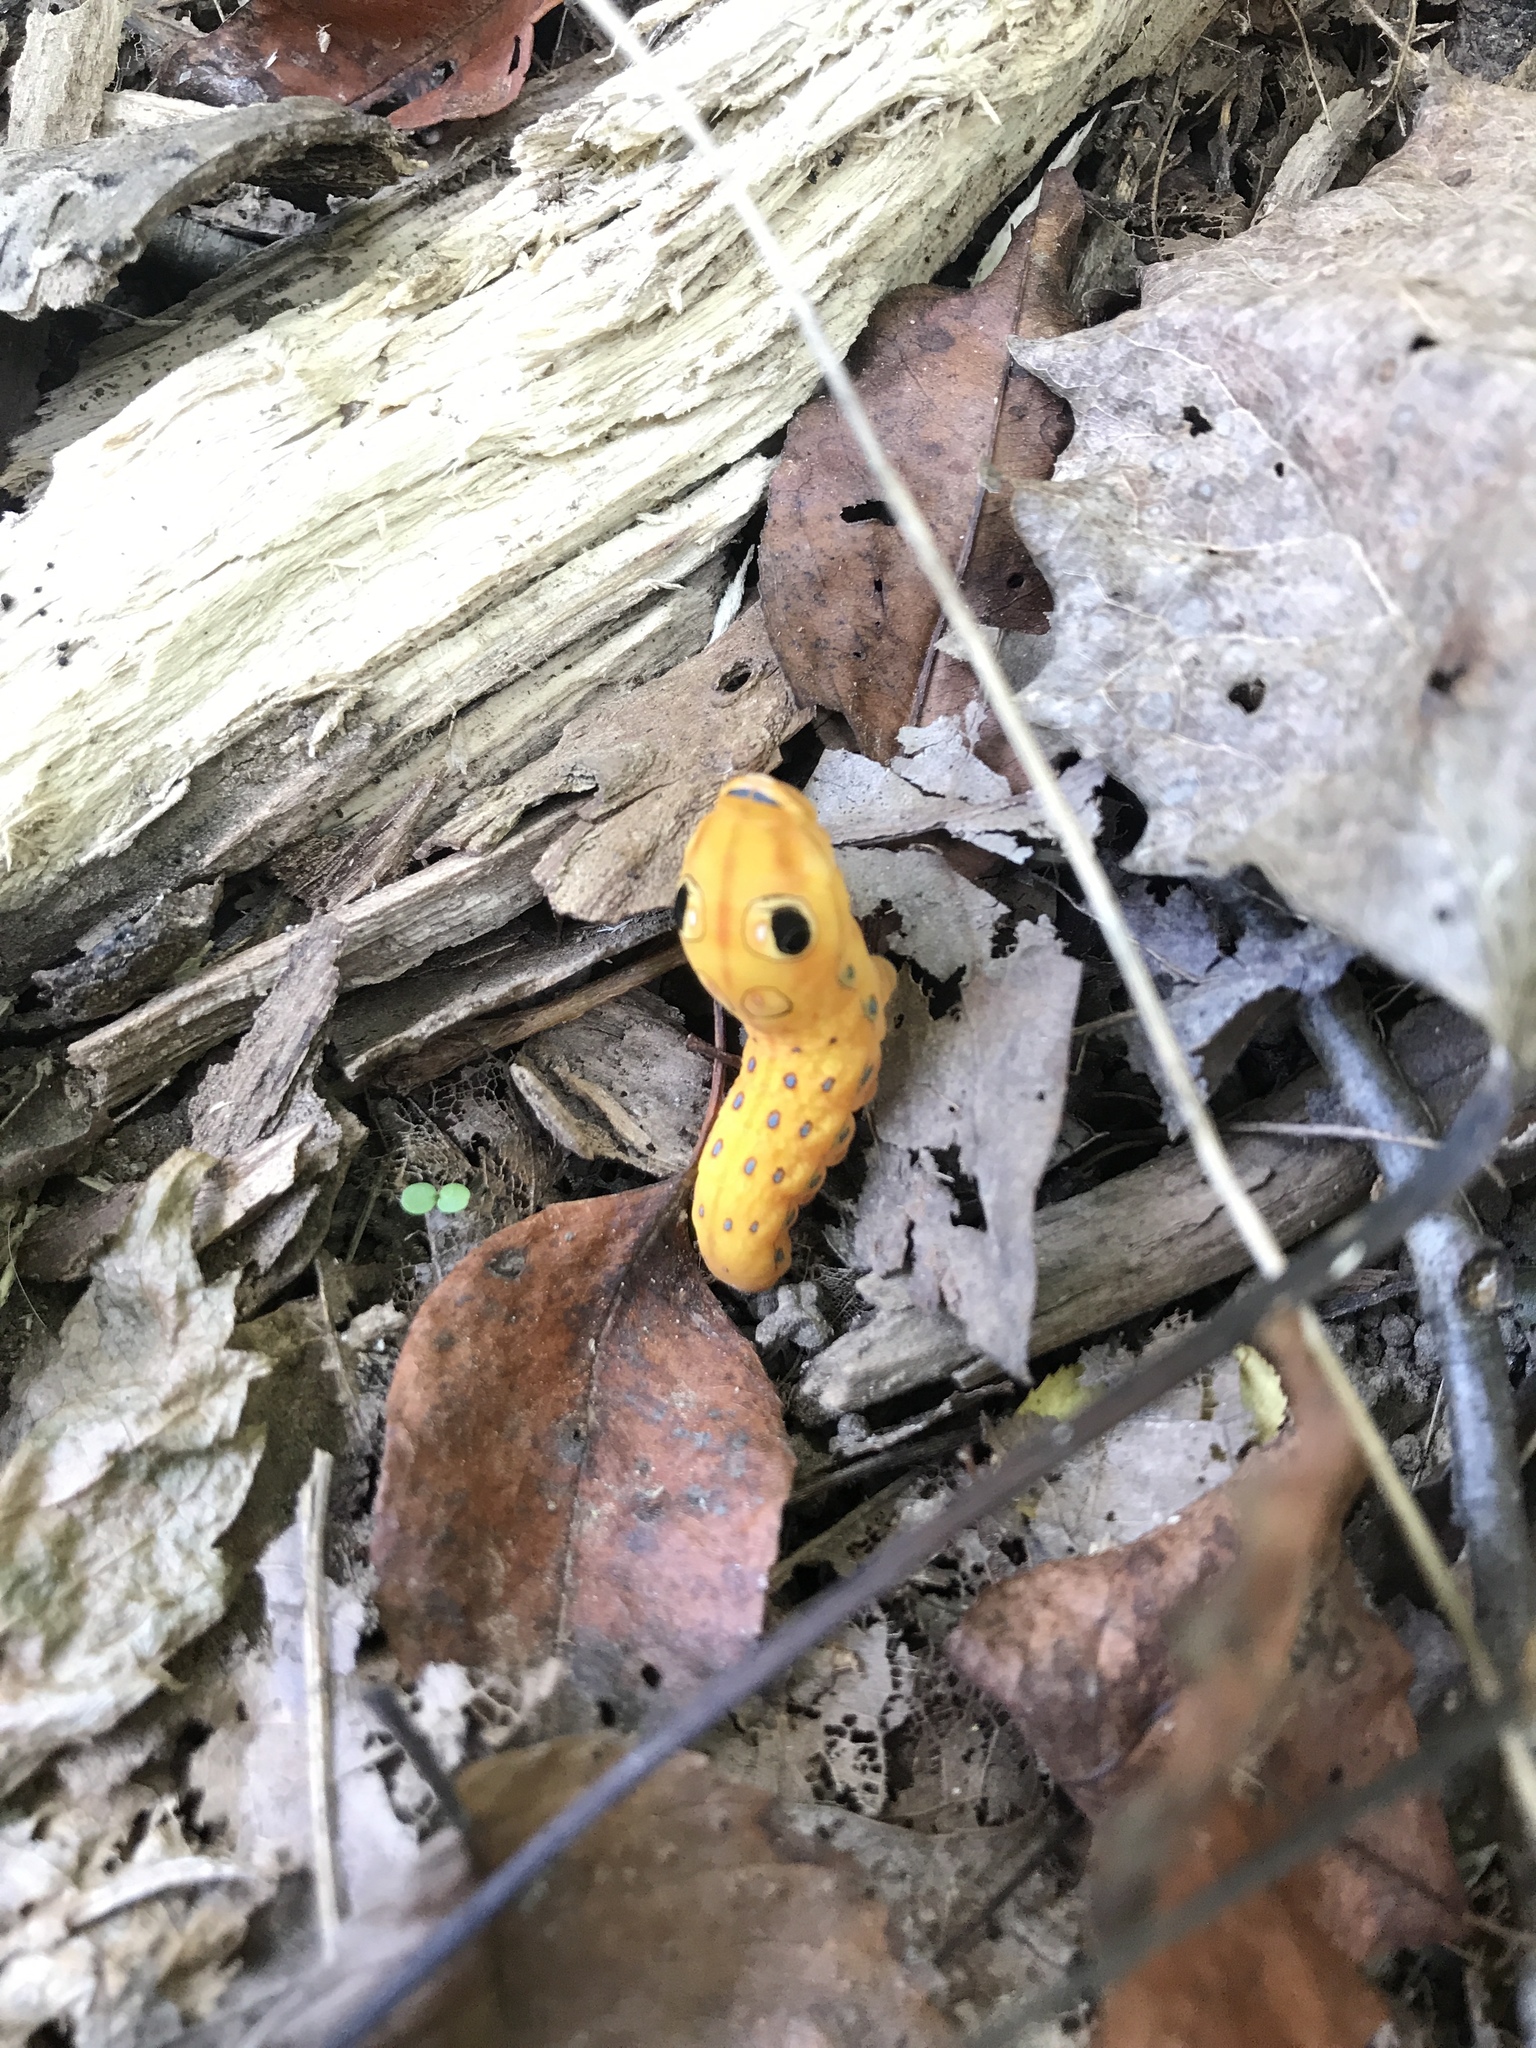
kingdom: Animalia
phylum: Arthropoda
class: Insecta
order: Lepidoptera
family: Papilionidae
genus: Papilio
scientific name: Papilio troilus
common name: Spicebush swallowtail
